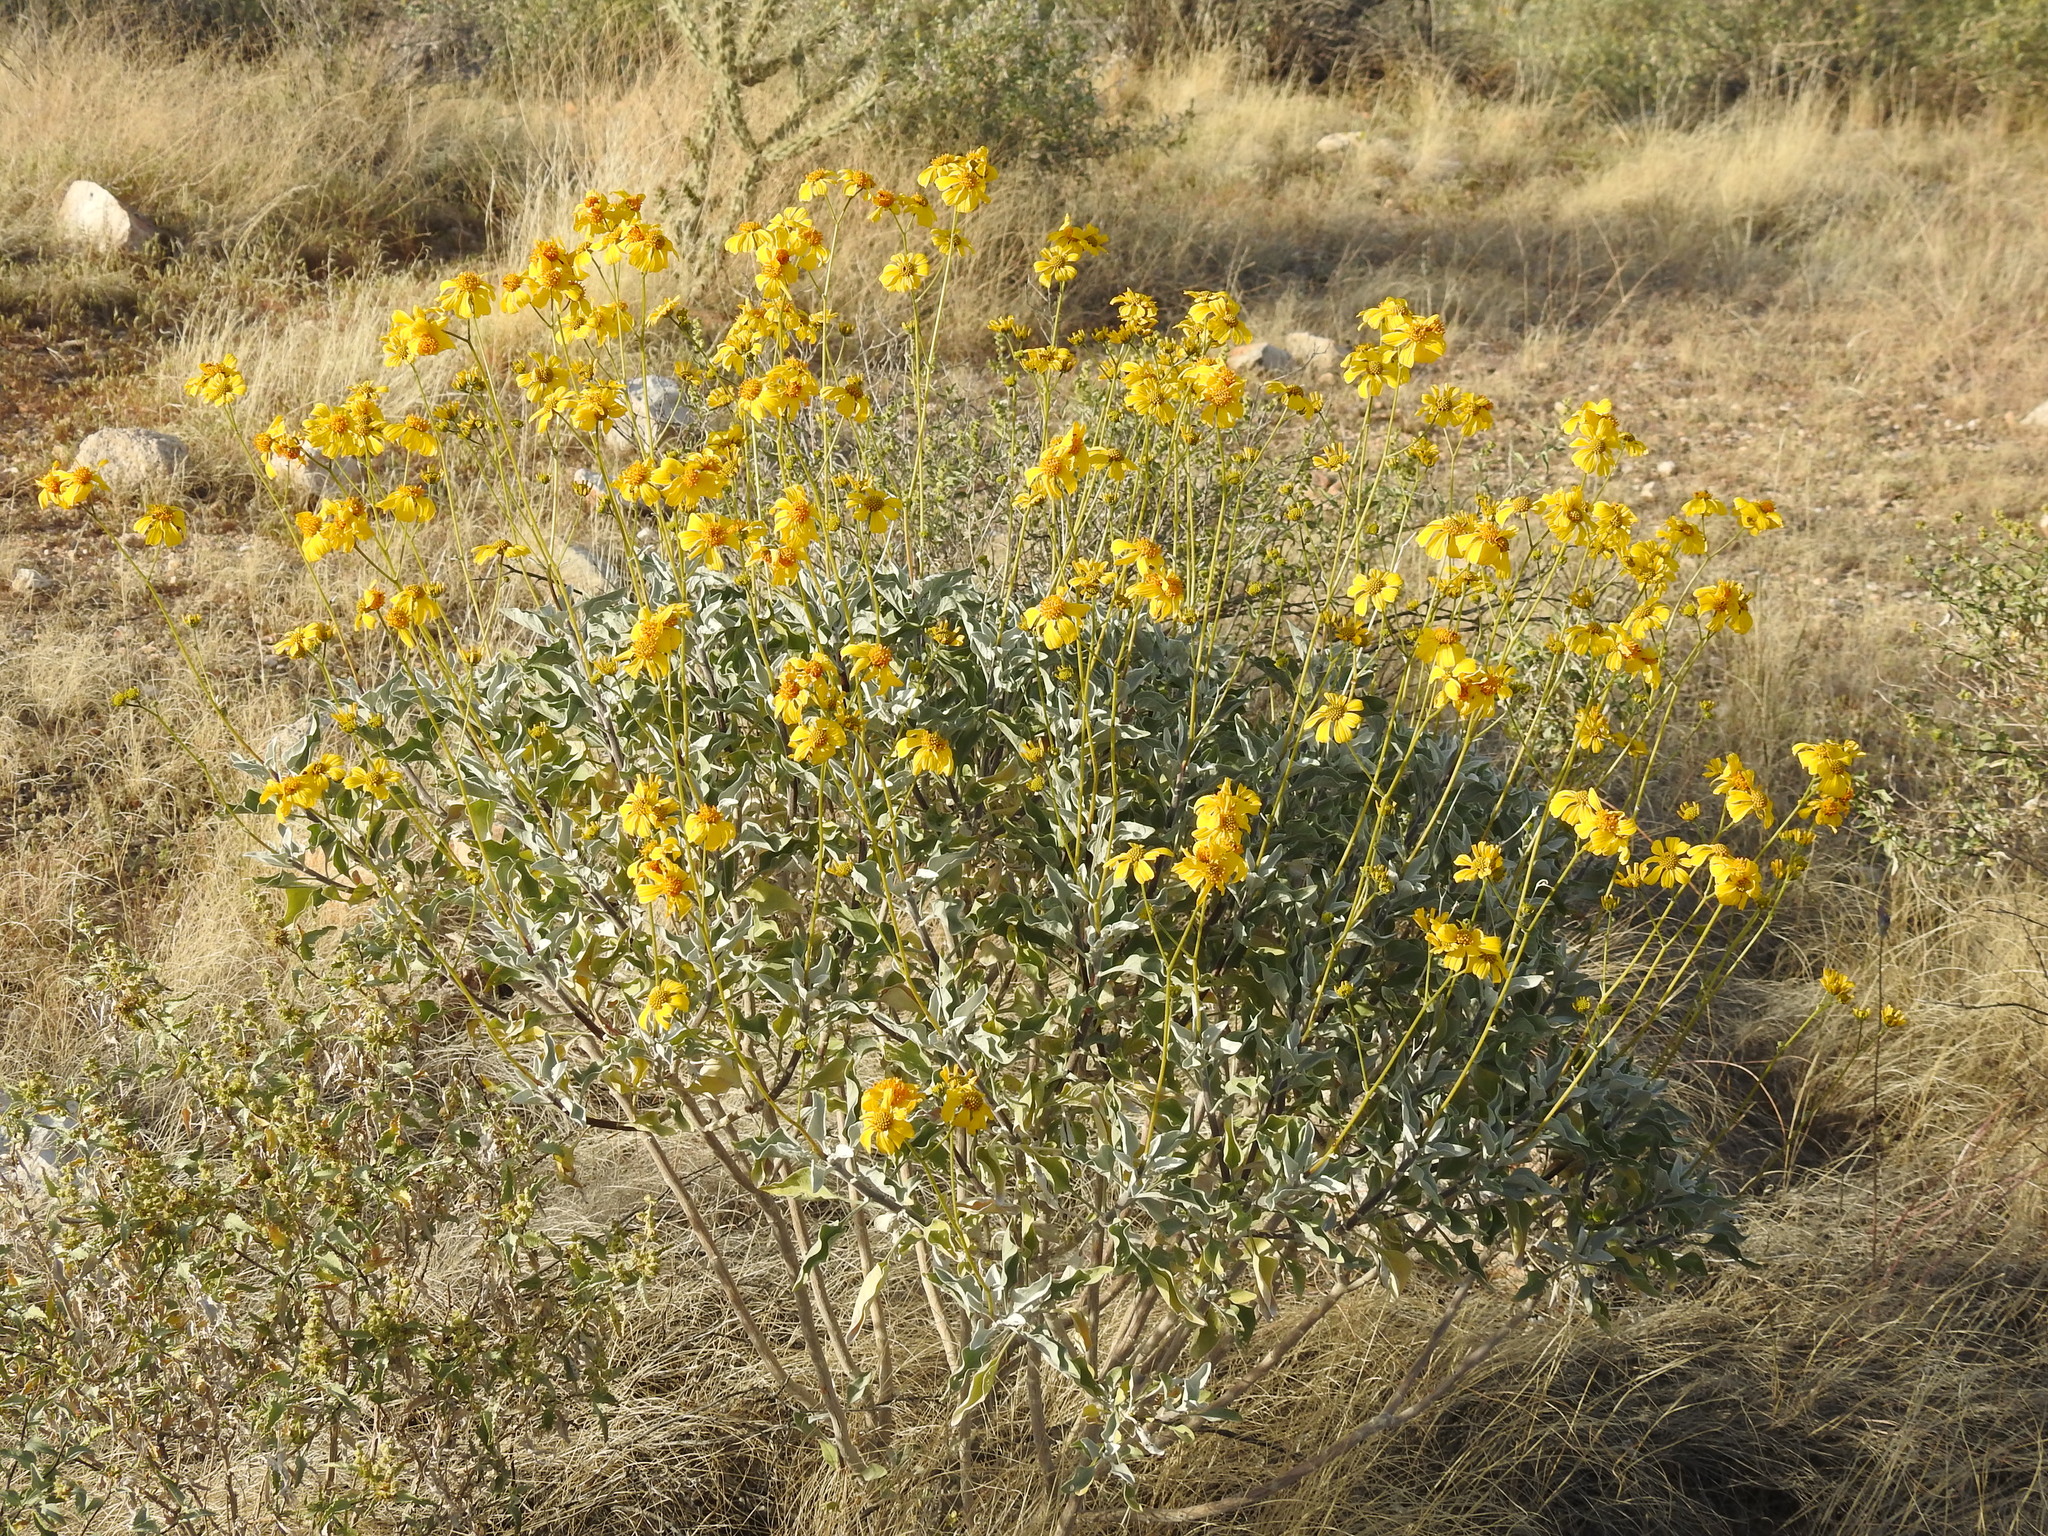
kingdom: Plantae
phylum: Tracheophyta
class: Magnoliopsida
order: Asterales
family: Asteraceae
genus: Encelia
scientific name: Encelia farinosa
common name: Brittlebush
